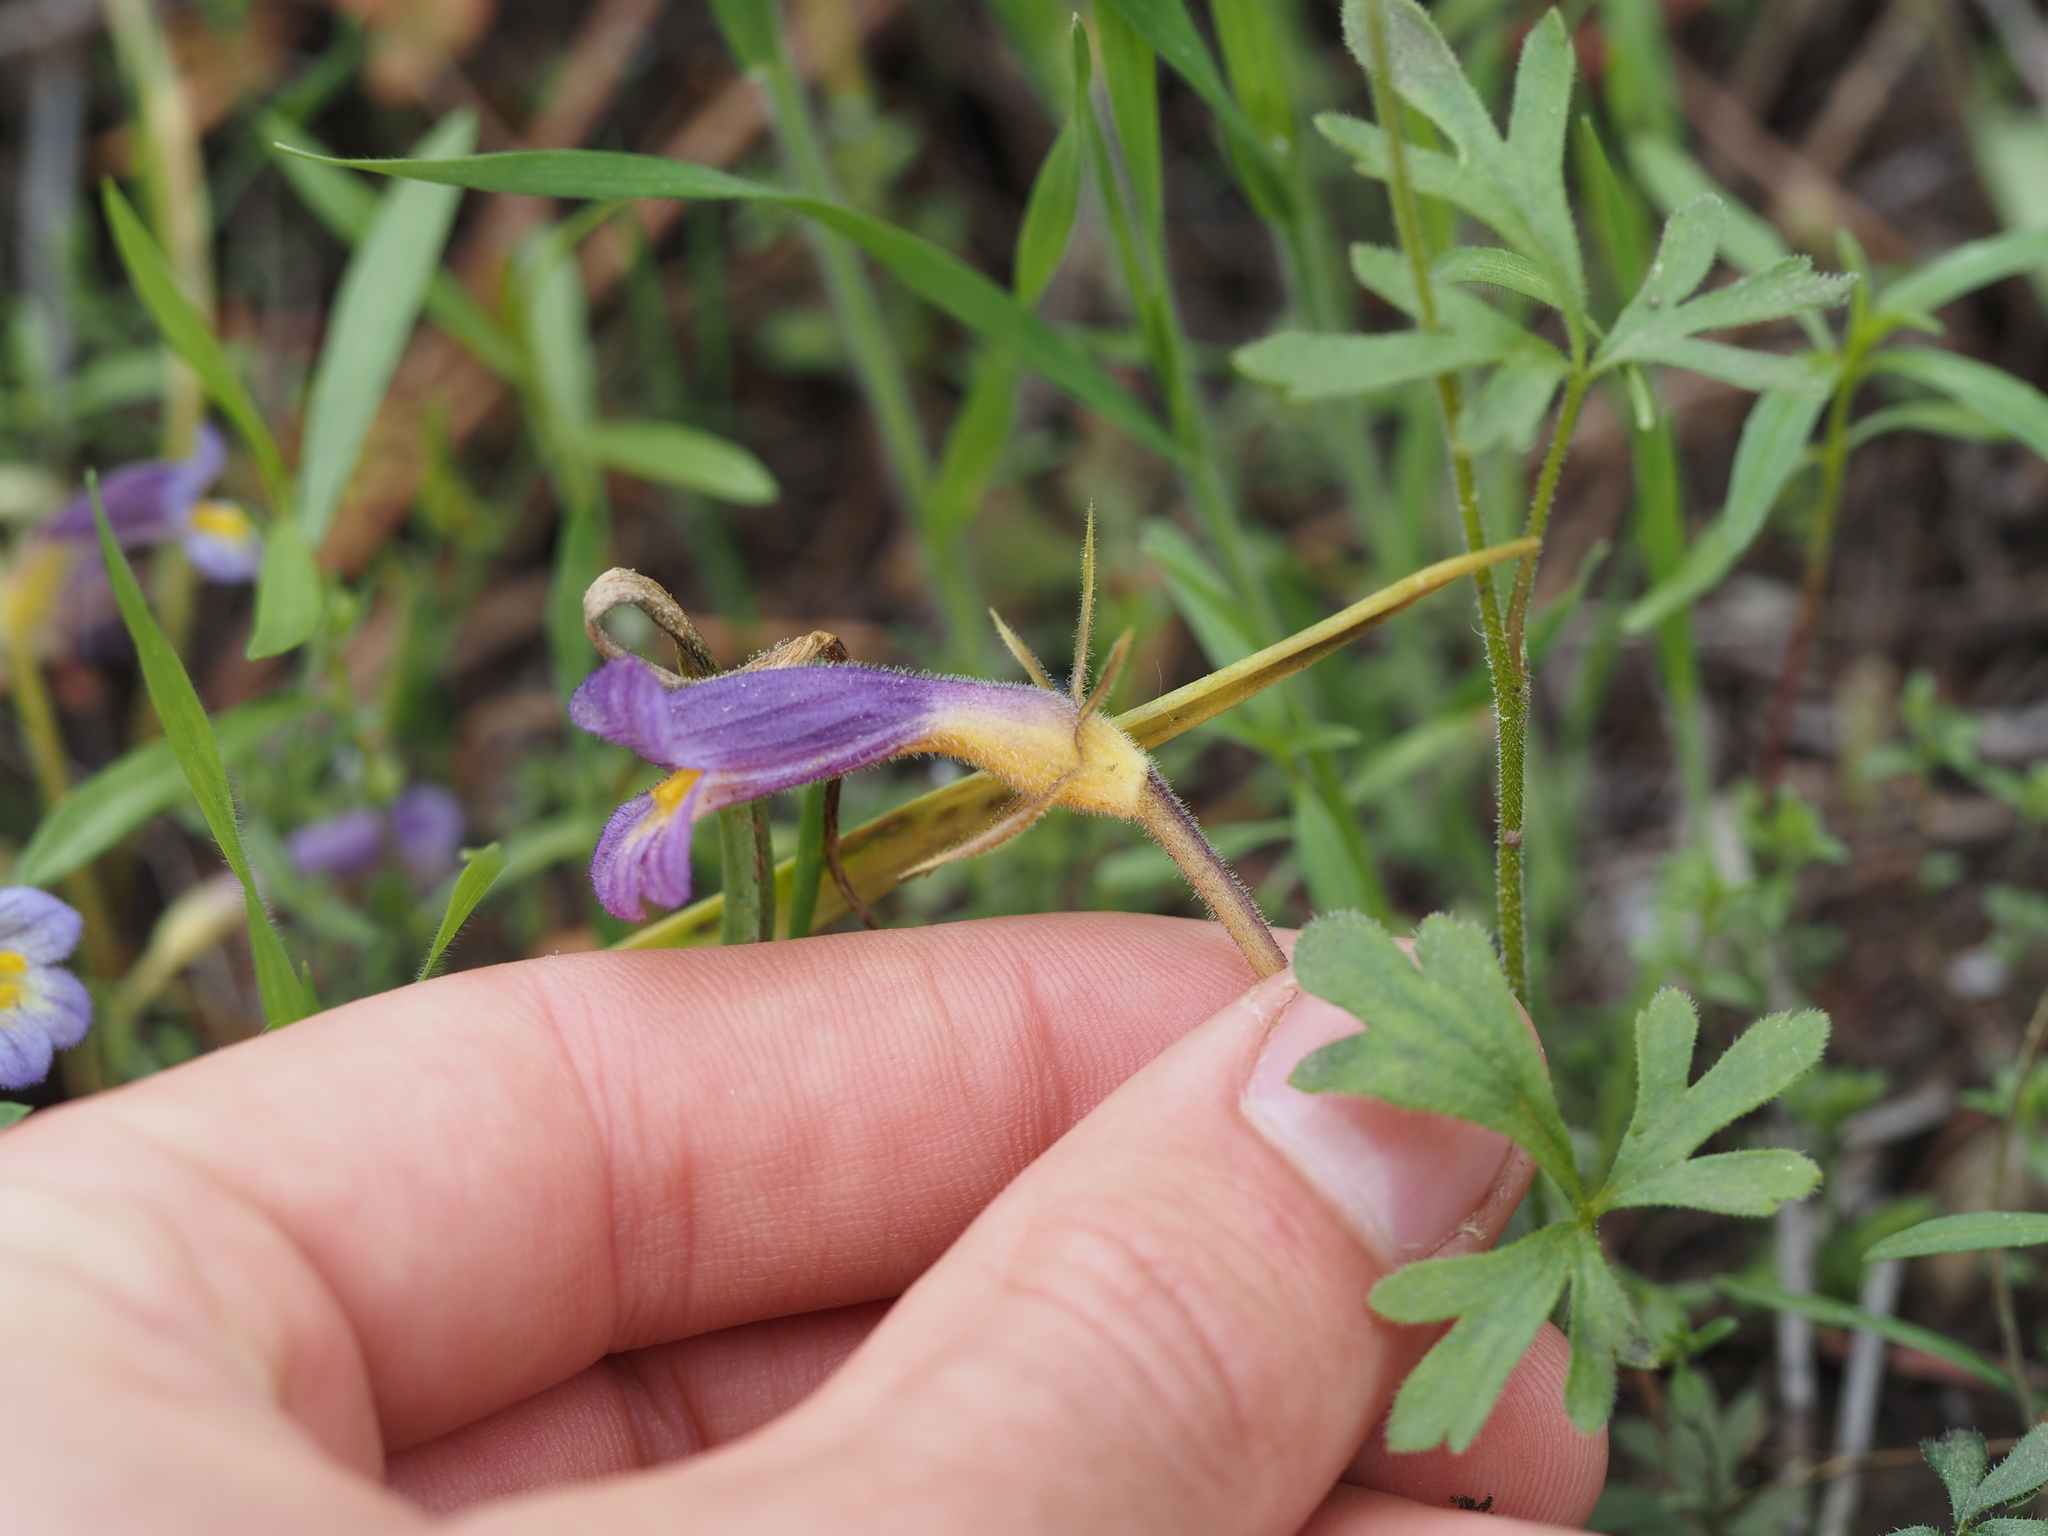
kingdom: Plantae
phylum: Tracheophyta
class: Magnoliopsida
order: Lamiales
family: Orobanchaceae
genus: Aphyllon
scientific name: Aphyllon uniflorum
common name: One-flowered broomrape
